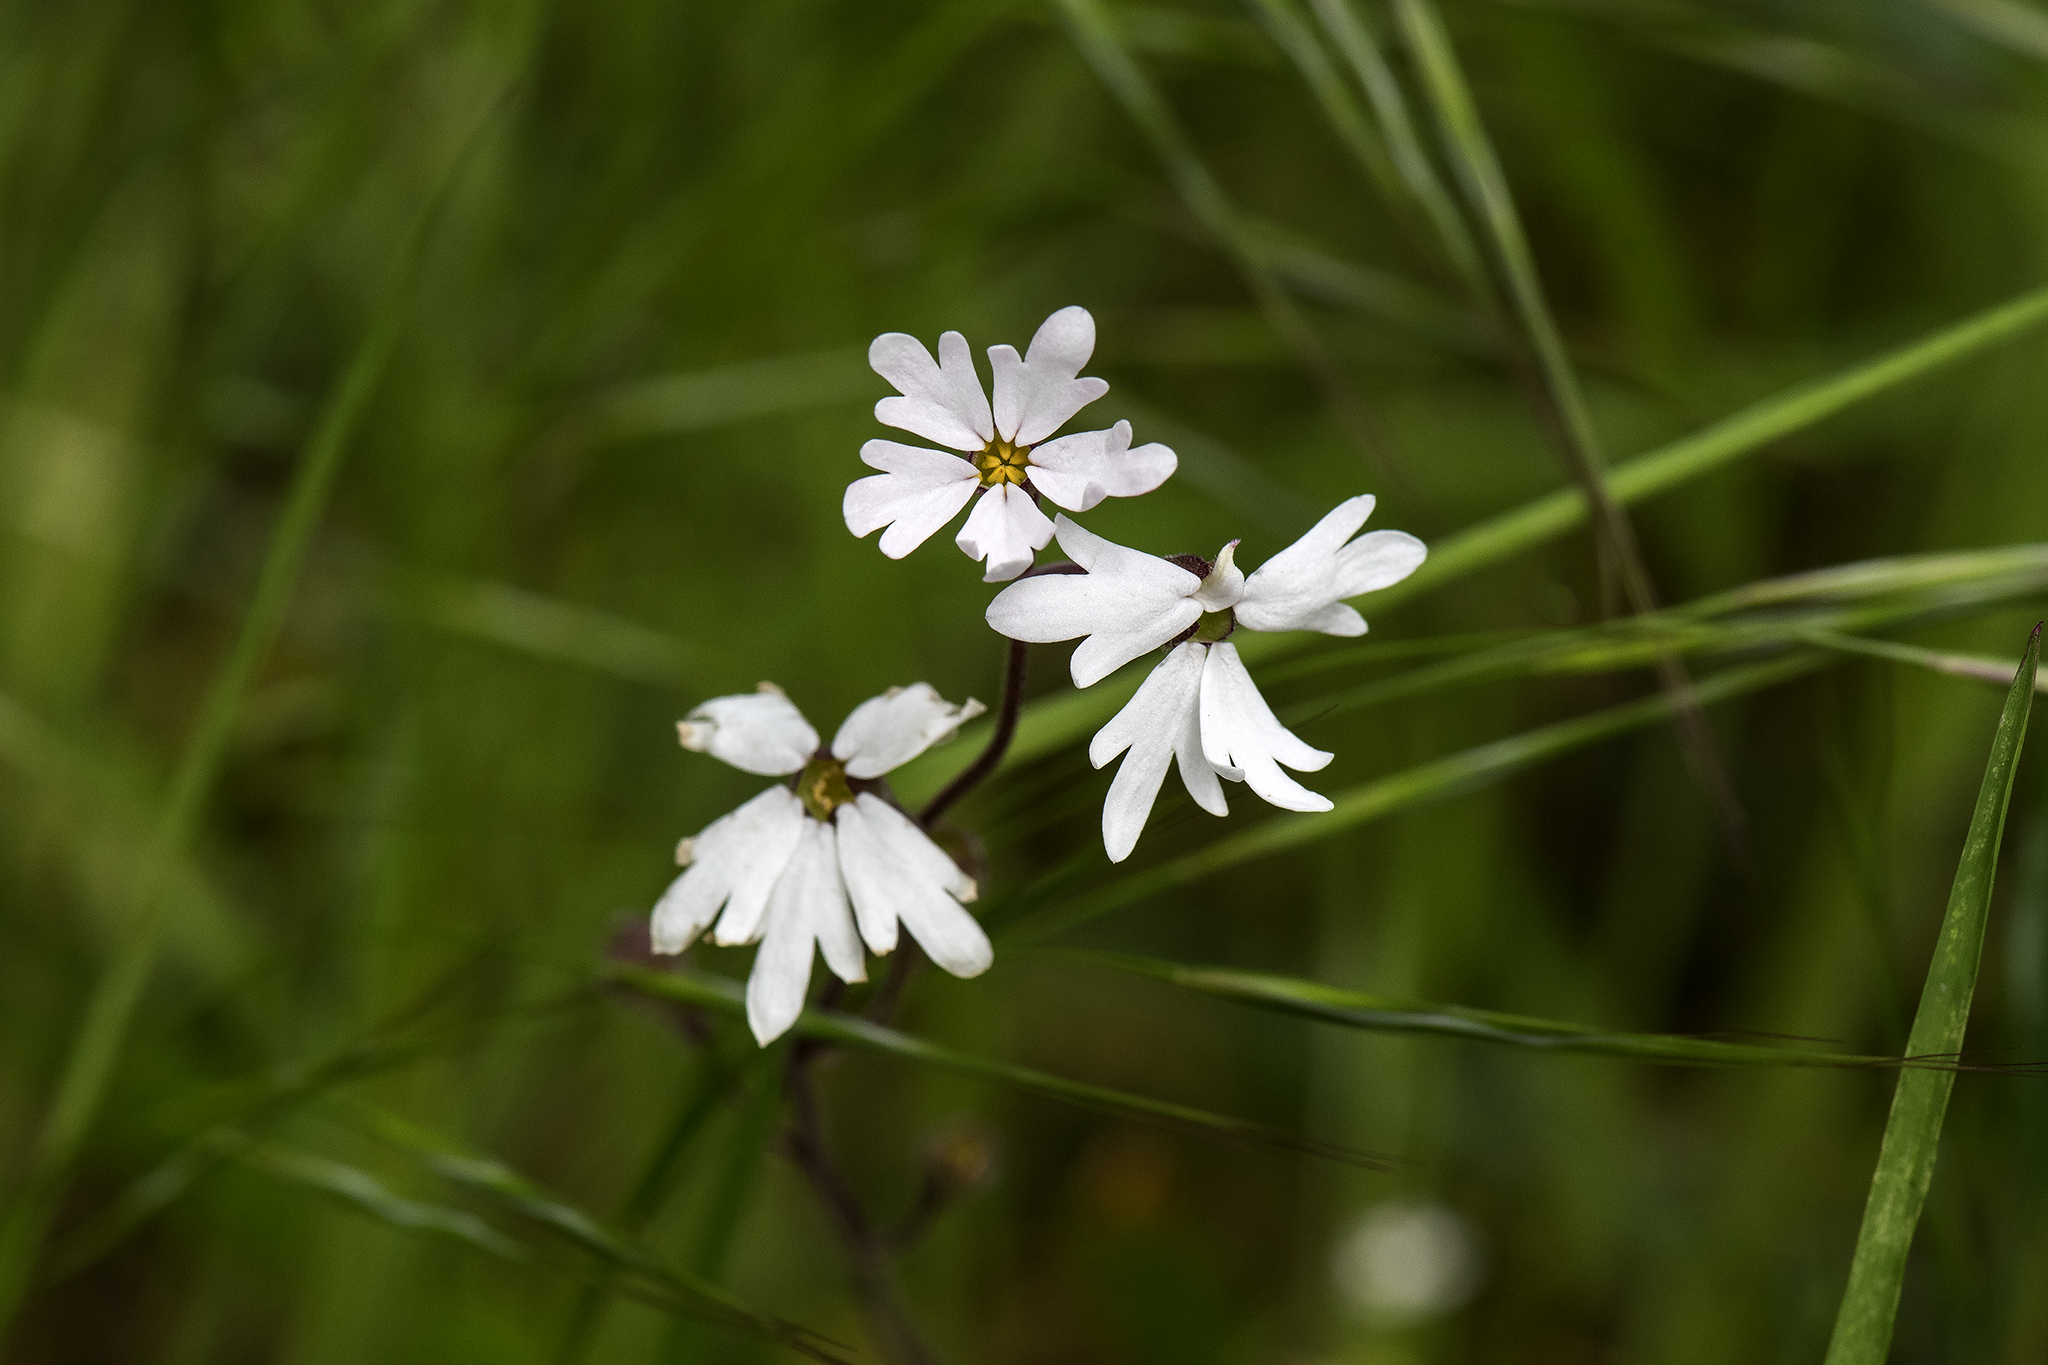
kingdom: Plantae
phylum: Tracheophyta
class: Magnoliopsida
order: Saxifragales
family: Saxifragaceae
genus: Lithophragma
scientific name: Lithophragma parviflorum
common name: Small-flowered fringe-cup
